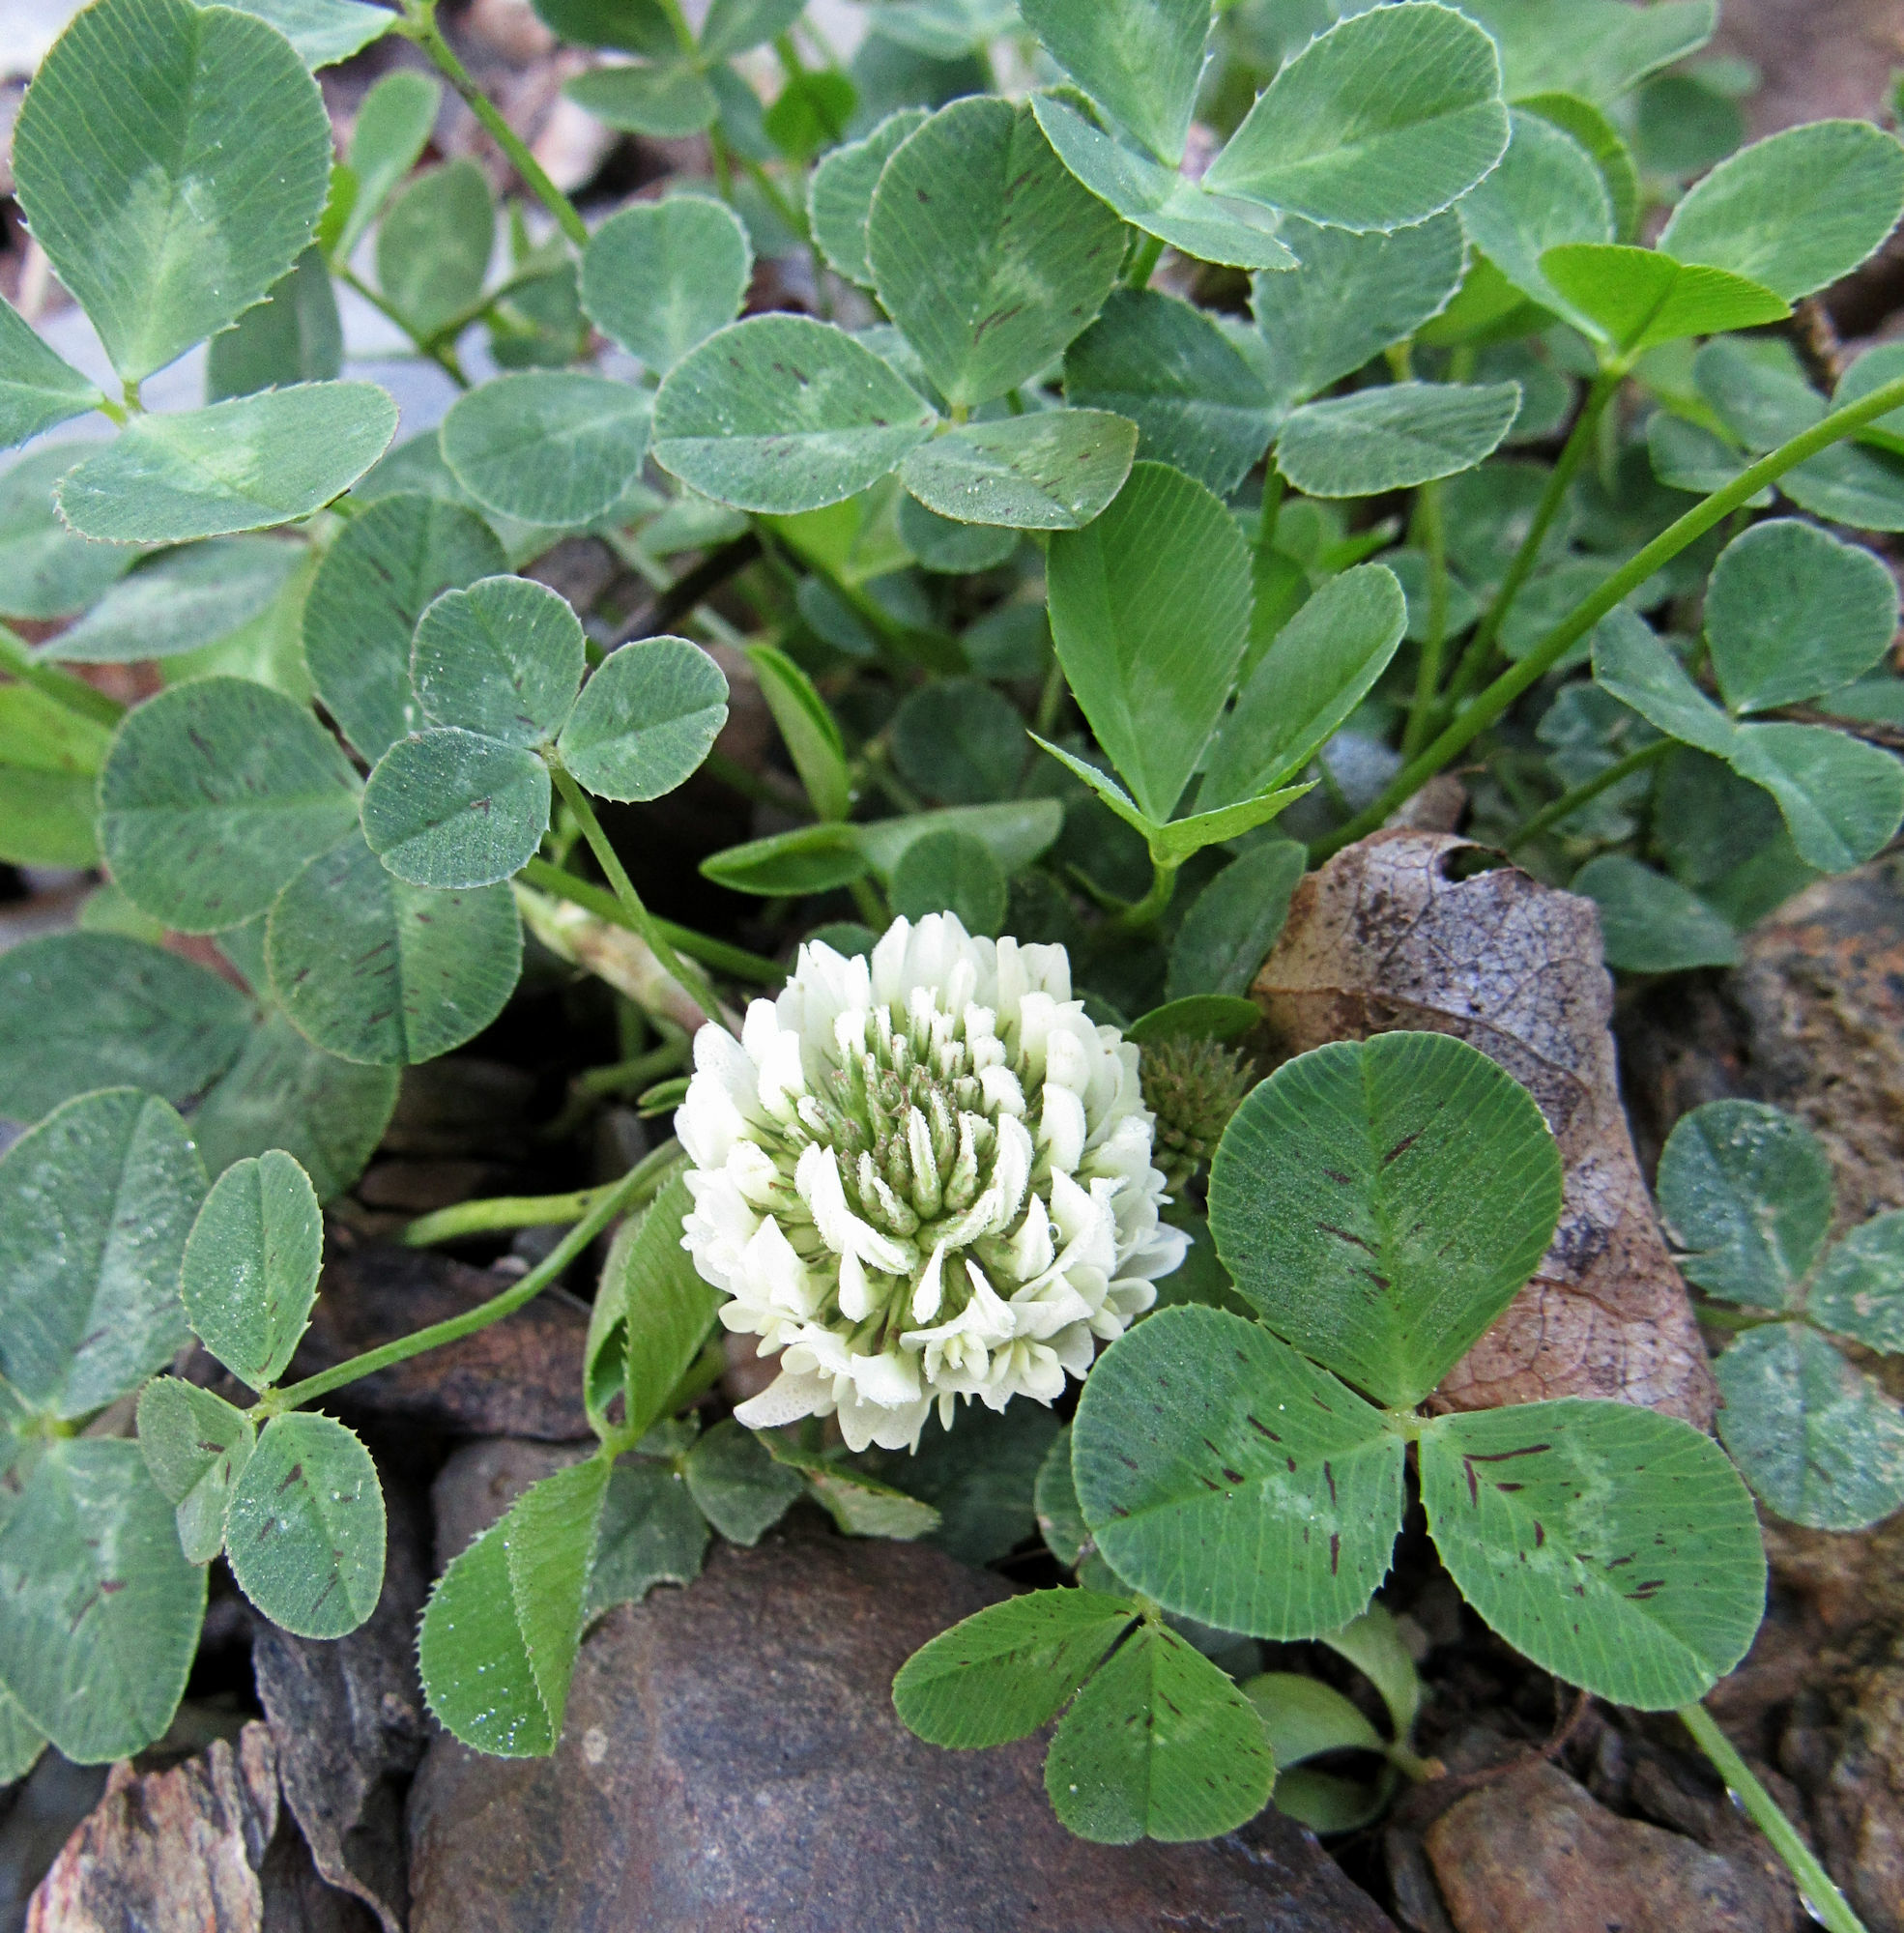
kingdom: Plantae
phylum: Tracheophyta
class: Magnoliopsida
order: Fabales
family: Fabaceae
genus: Trifolium
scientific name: Trifolium repens
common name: White clover
